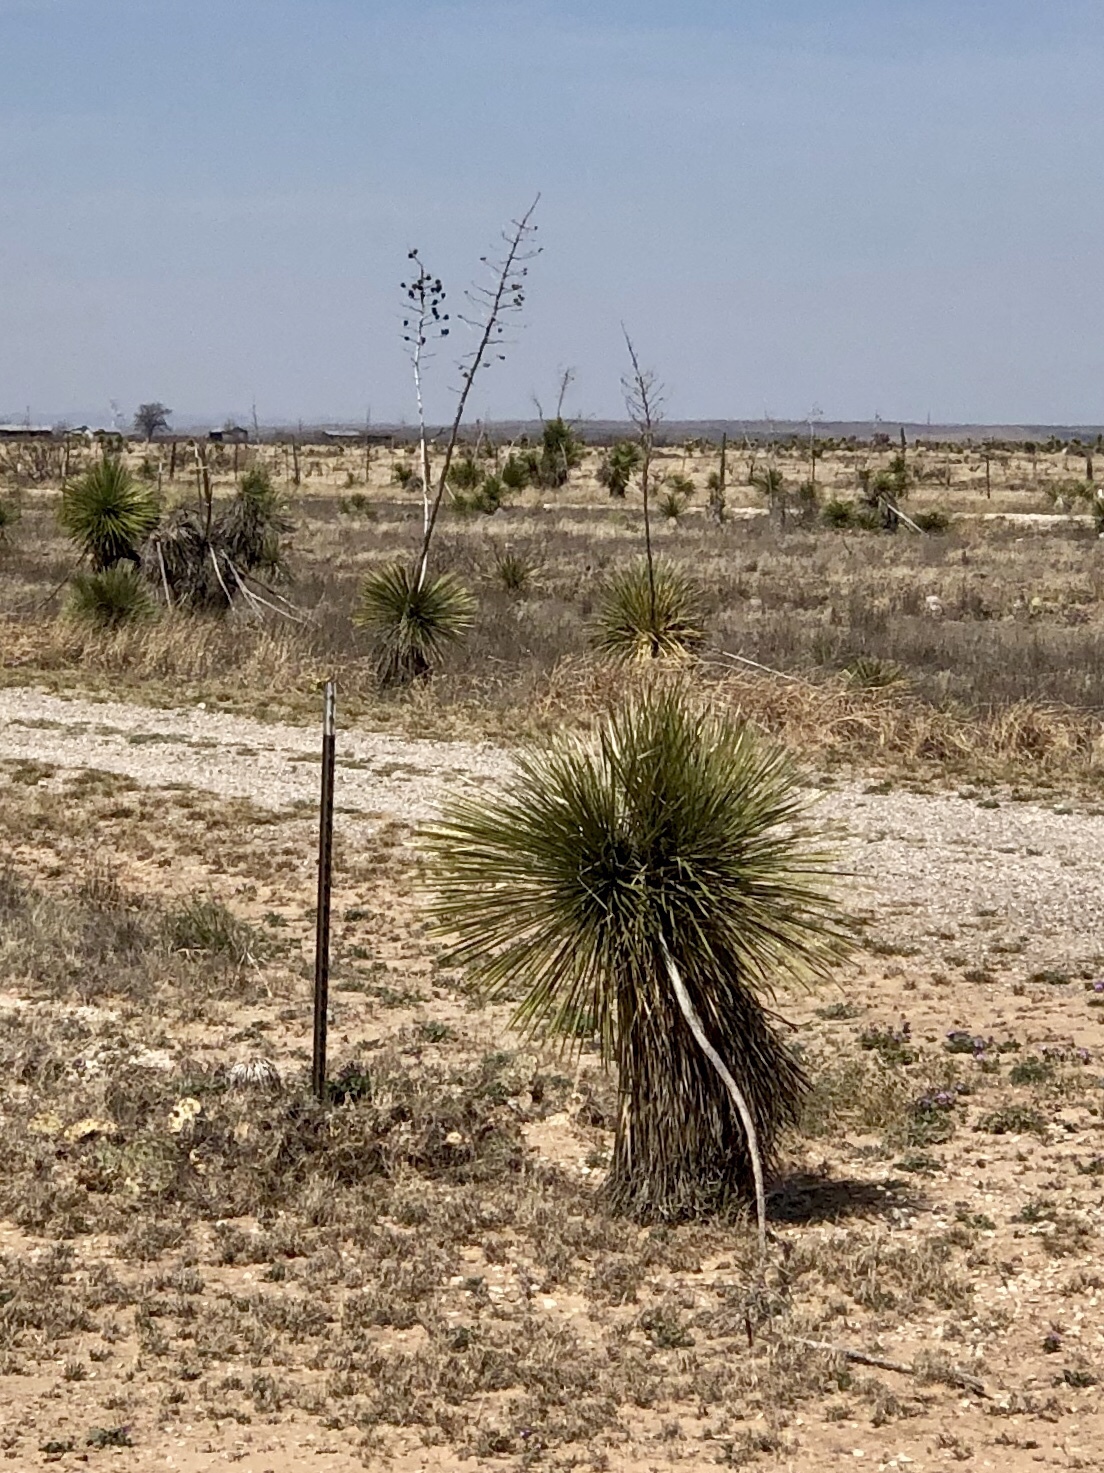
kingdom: Plantae
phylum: Tracheophyta
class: Liliopsida
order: Asparagales
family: Asparagaceae
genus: Yucca
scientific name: Yucca elata
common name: Palmella
